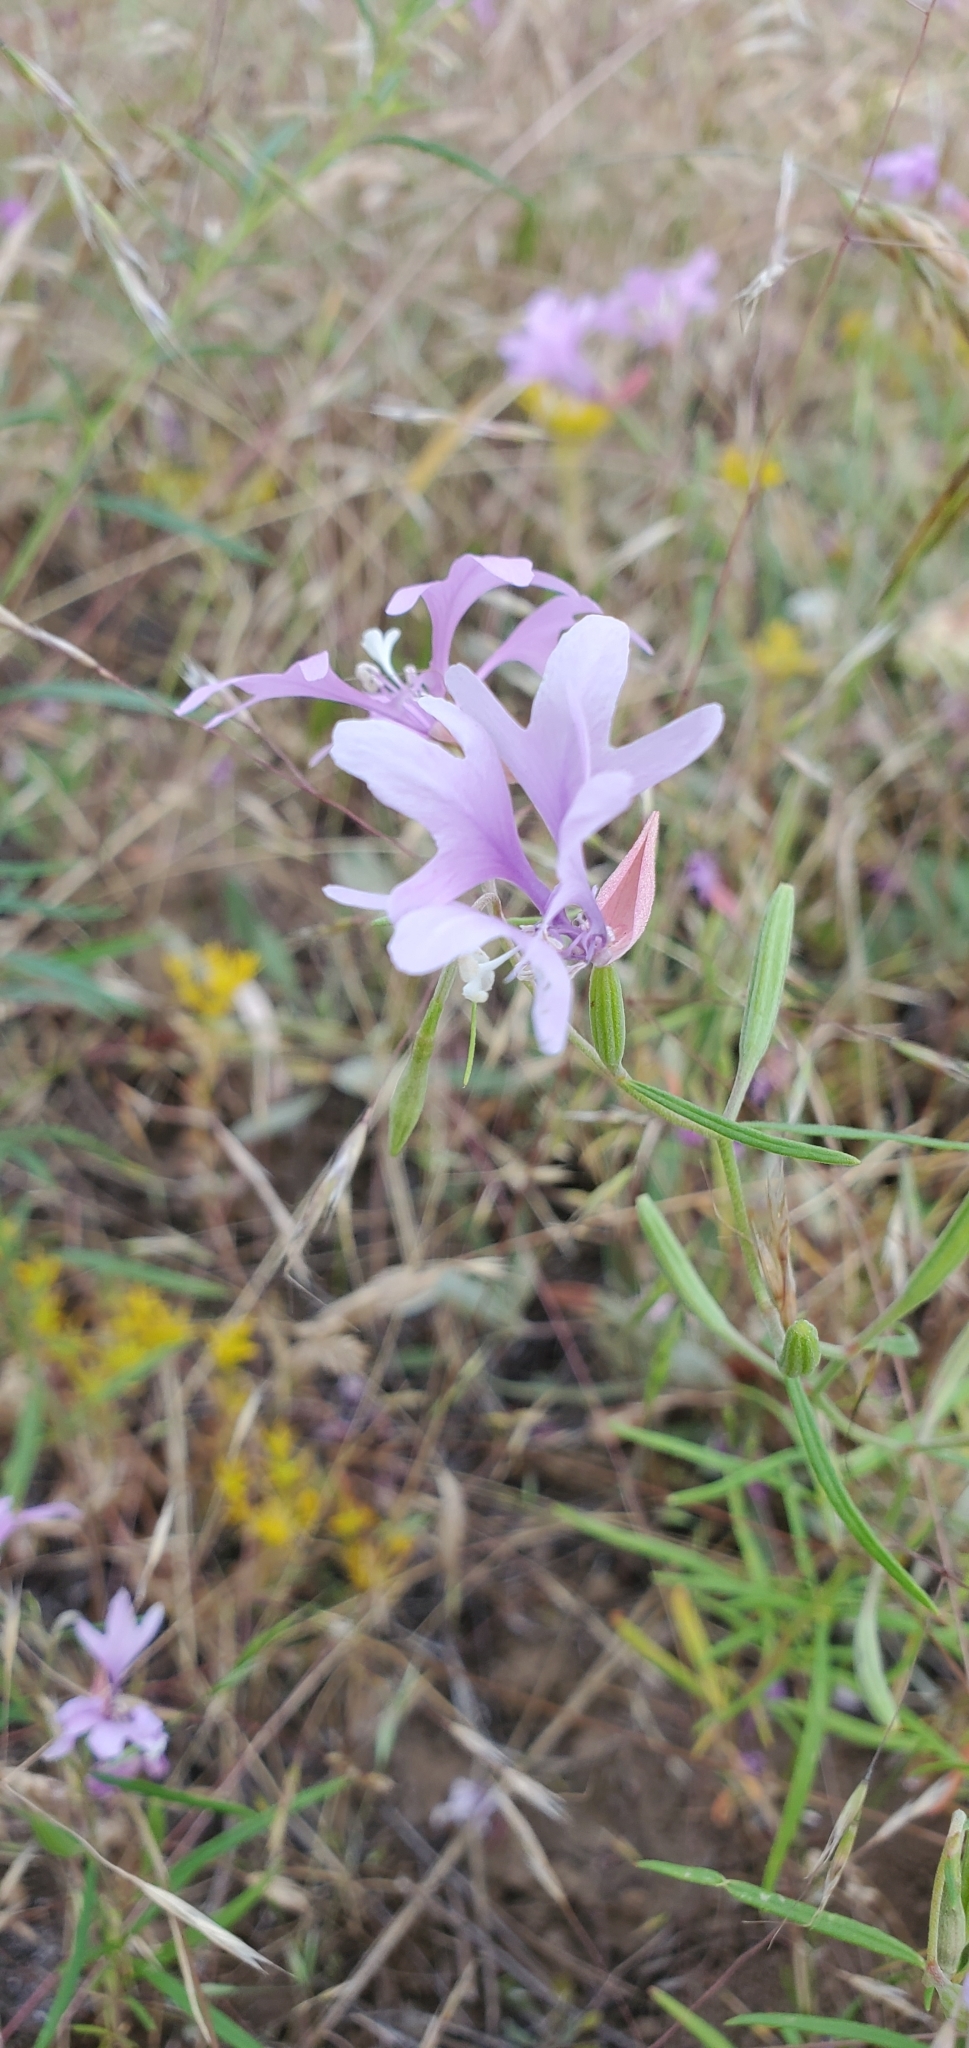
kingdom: Plantae
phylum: Tracheophyta
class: Magnoliopsida
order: Myrtales
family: Onagraceae
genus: Clarkia
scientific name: Clarkia pulchella
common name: Deer horn
